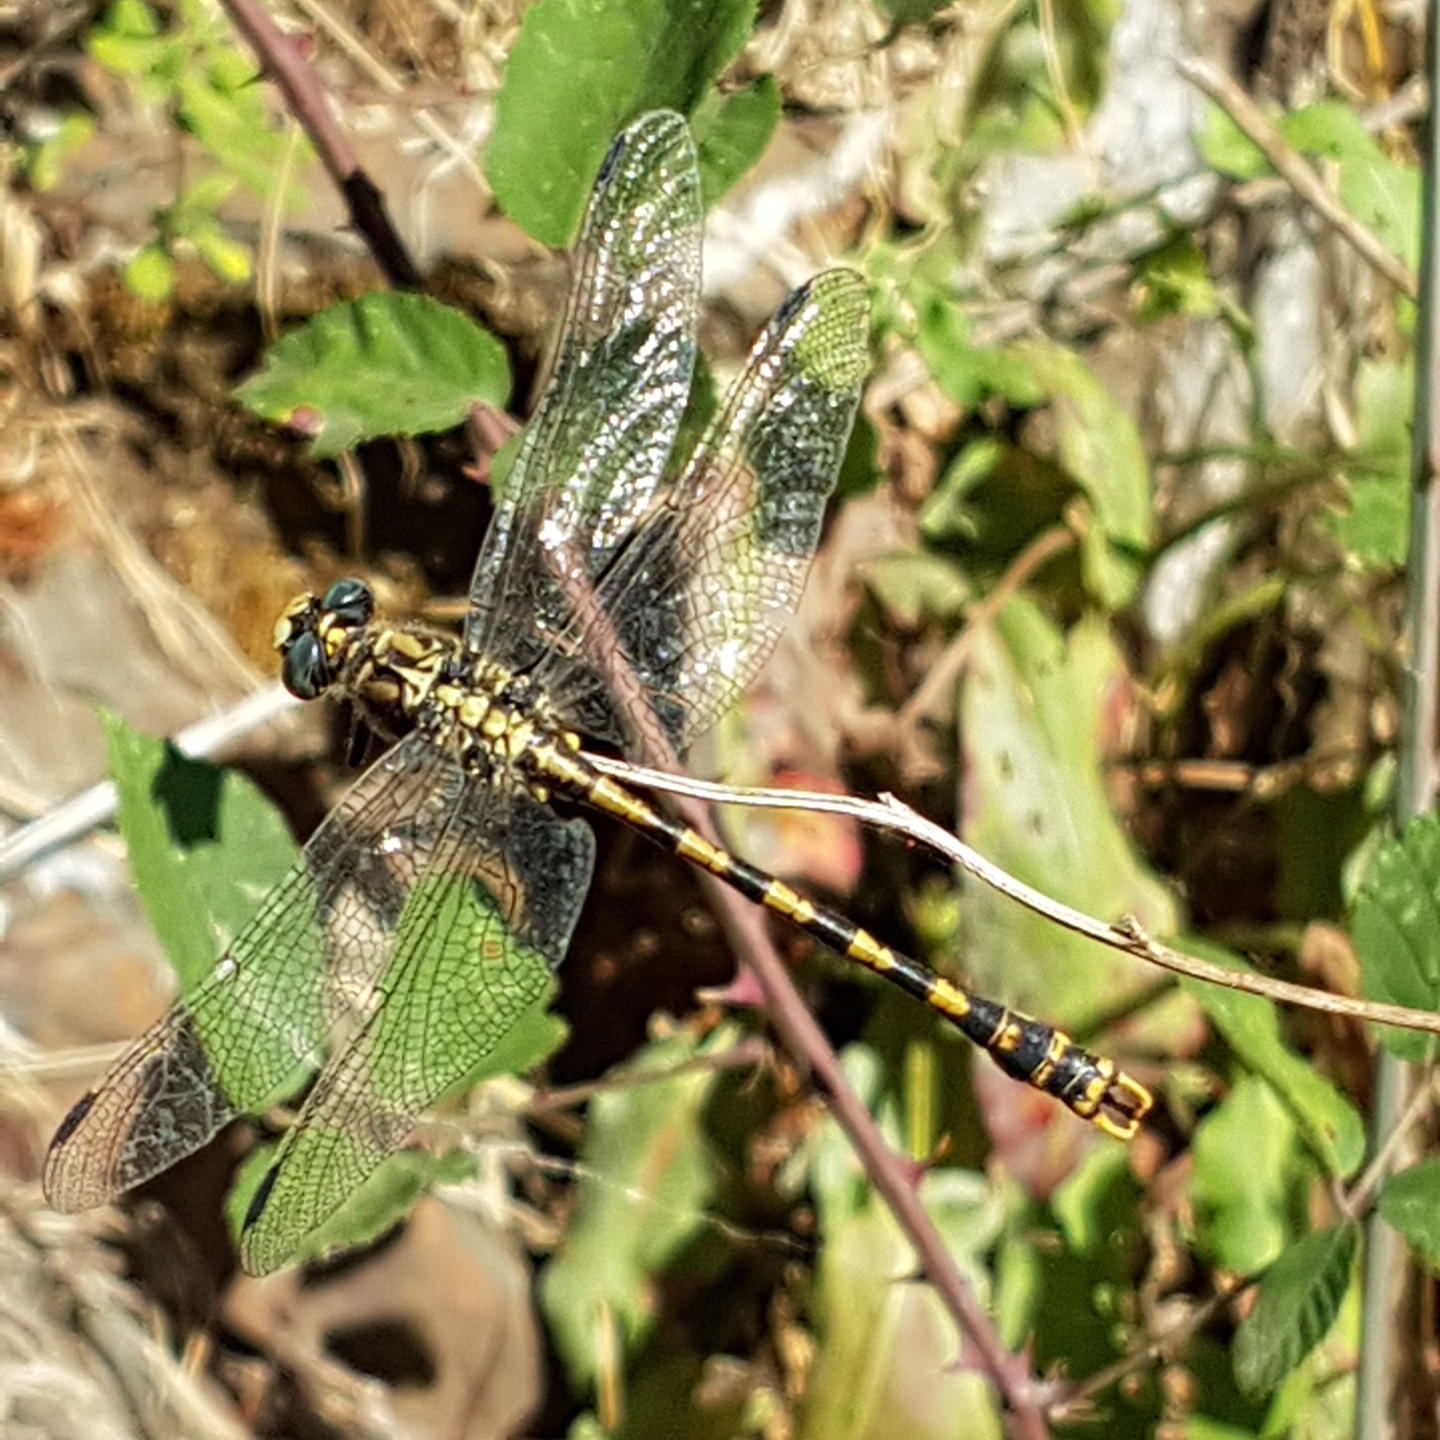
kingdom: Animalia
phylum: Arthropoda
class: Insecta
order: Odonata
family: Gomphidae
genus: Onychogomphus
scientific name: Onychogomphus uncatus
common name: Large pincertail
